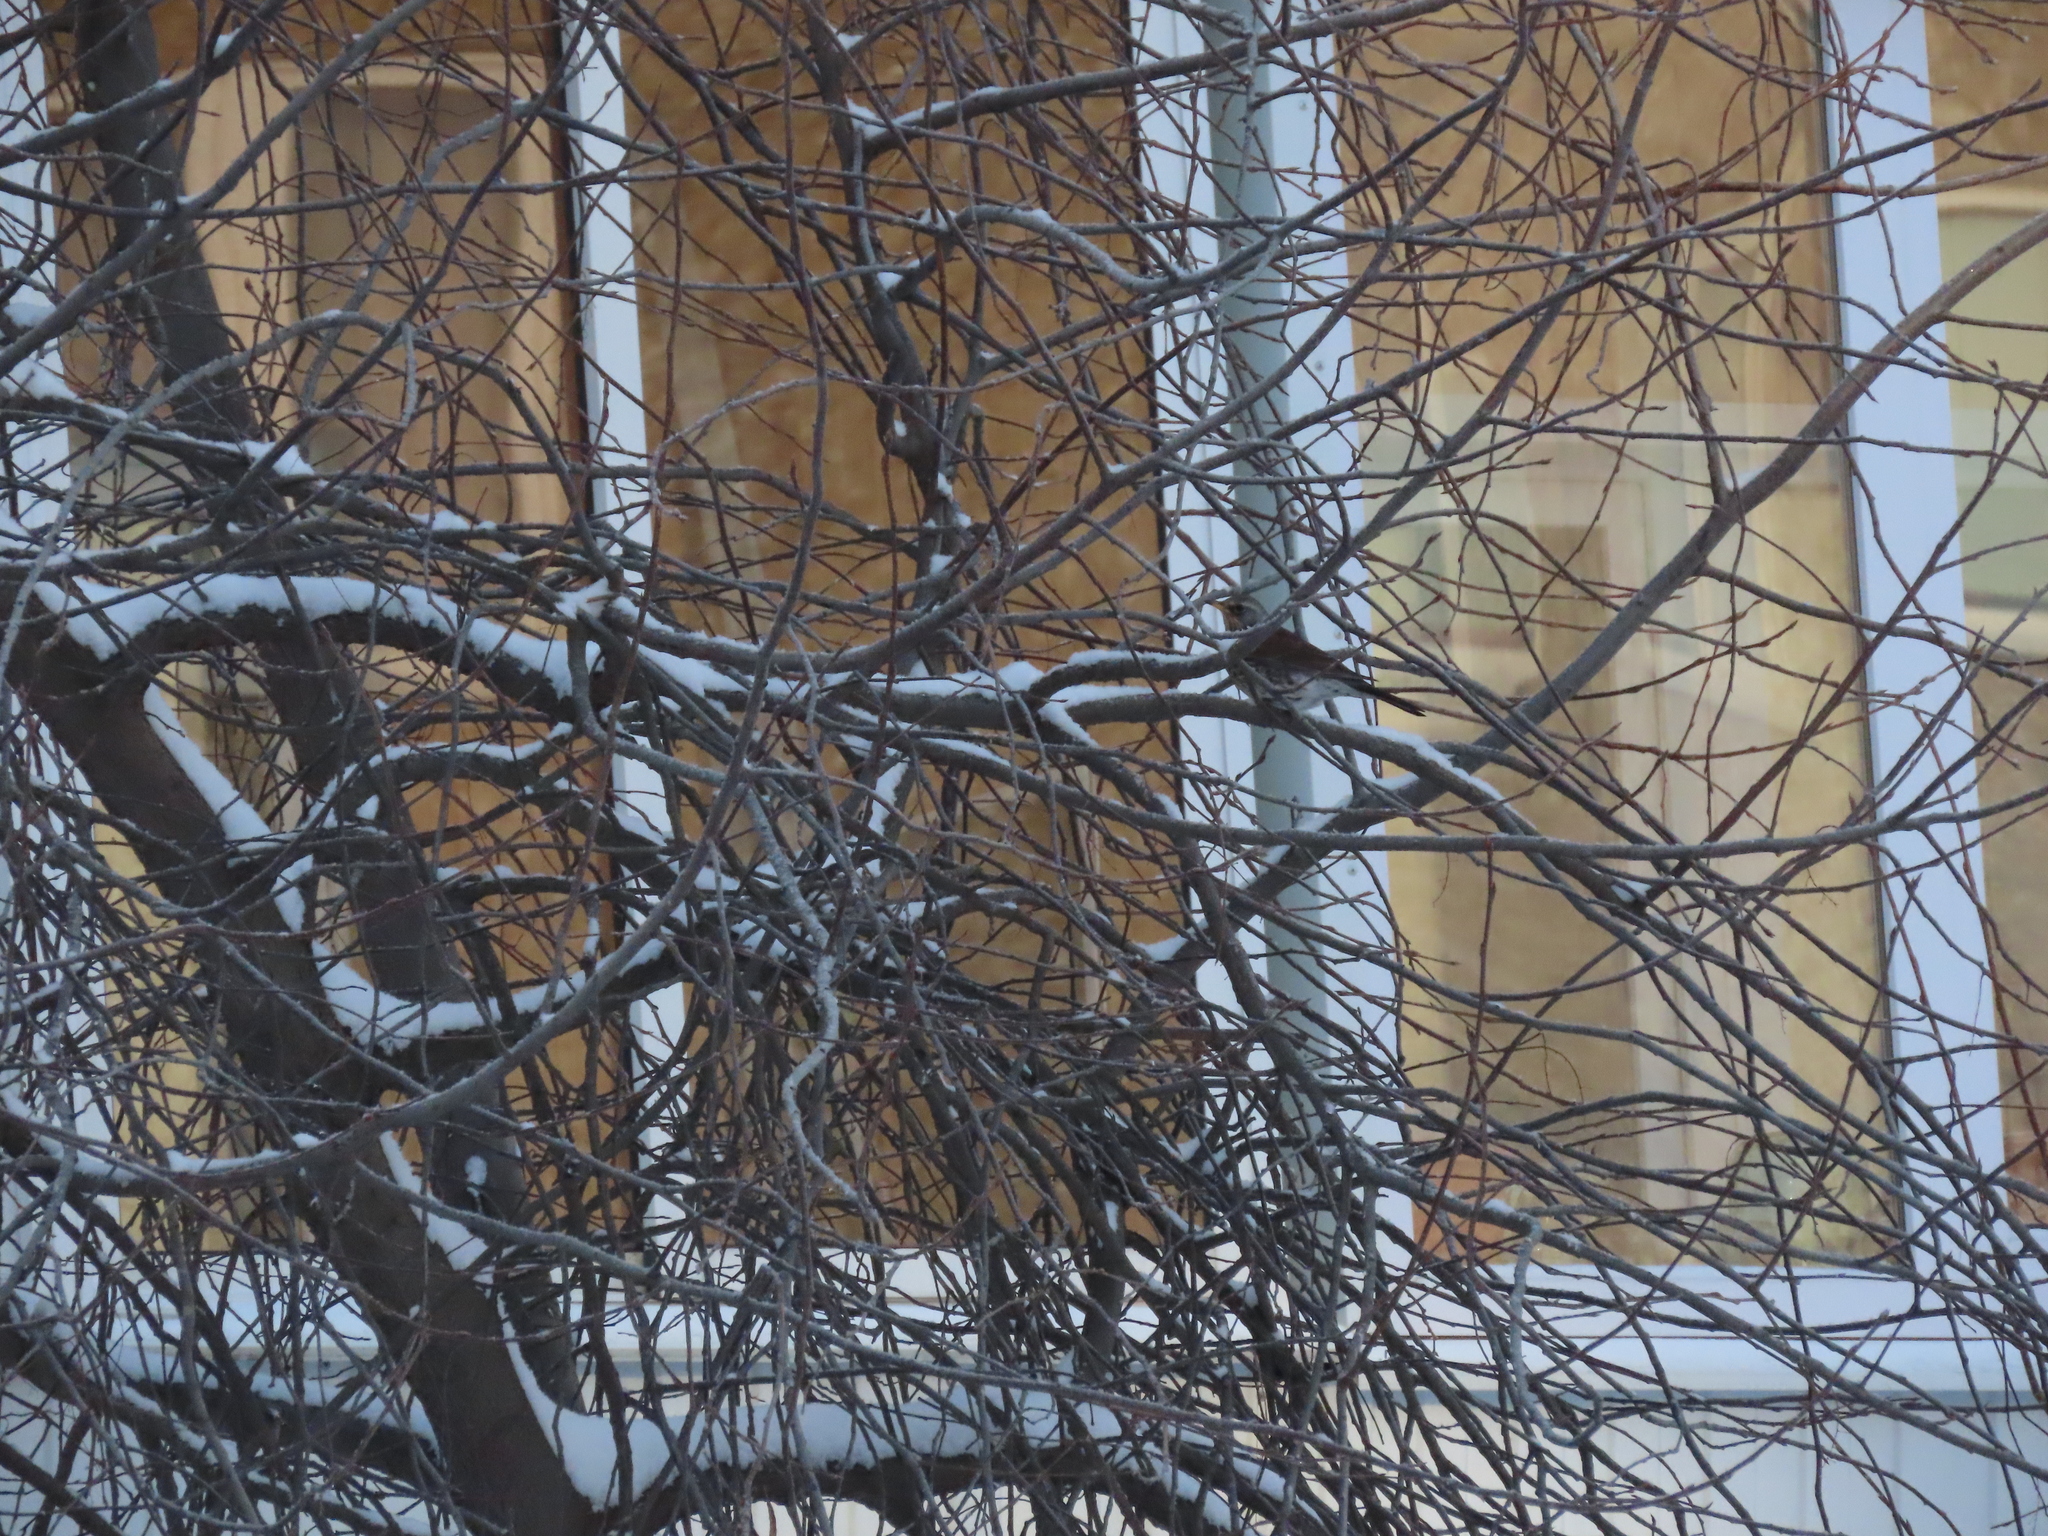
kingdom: Animalia
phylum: Chordata
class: Aves
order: Passeriformes
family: Turdidae
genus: Turdus
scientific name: Turdus pilaris
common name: Fieldfare
